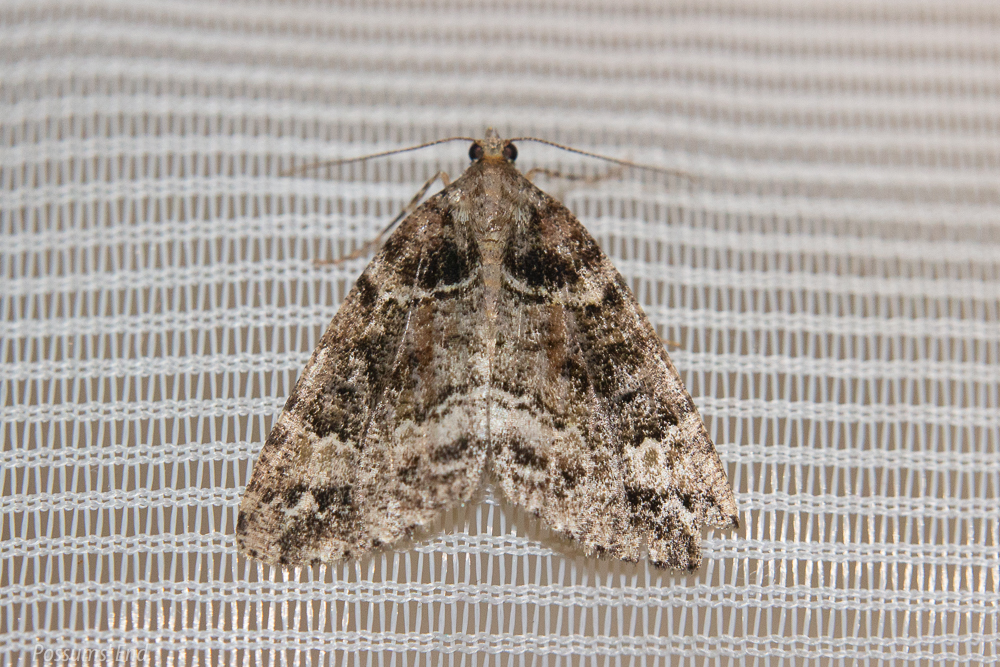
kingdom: Animalia
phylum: Arthropoda
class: Insecta
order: Lepidoptera
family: Geometridae
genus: Pseudocoremia
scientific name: Pseudocoremia productata
